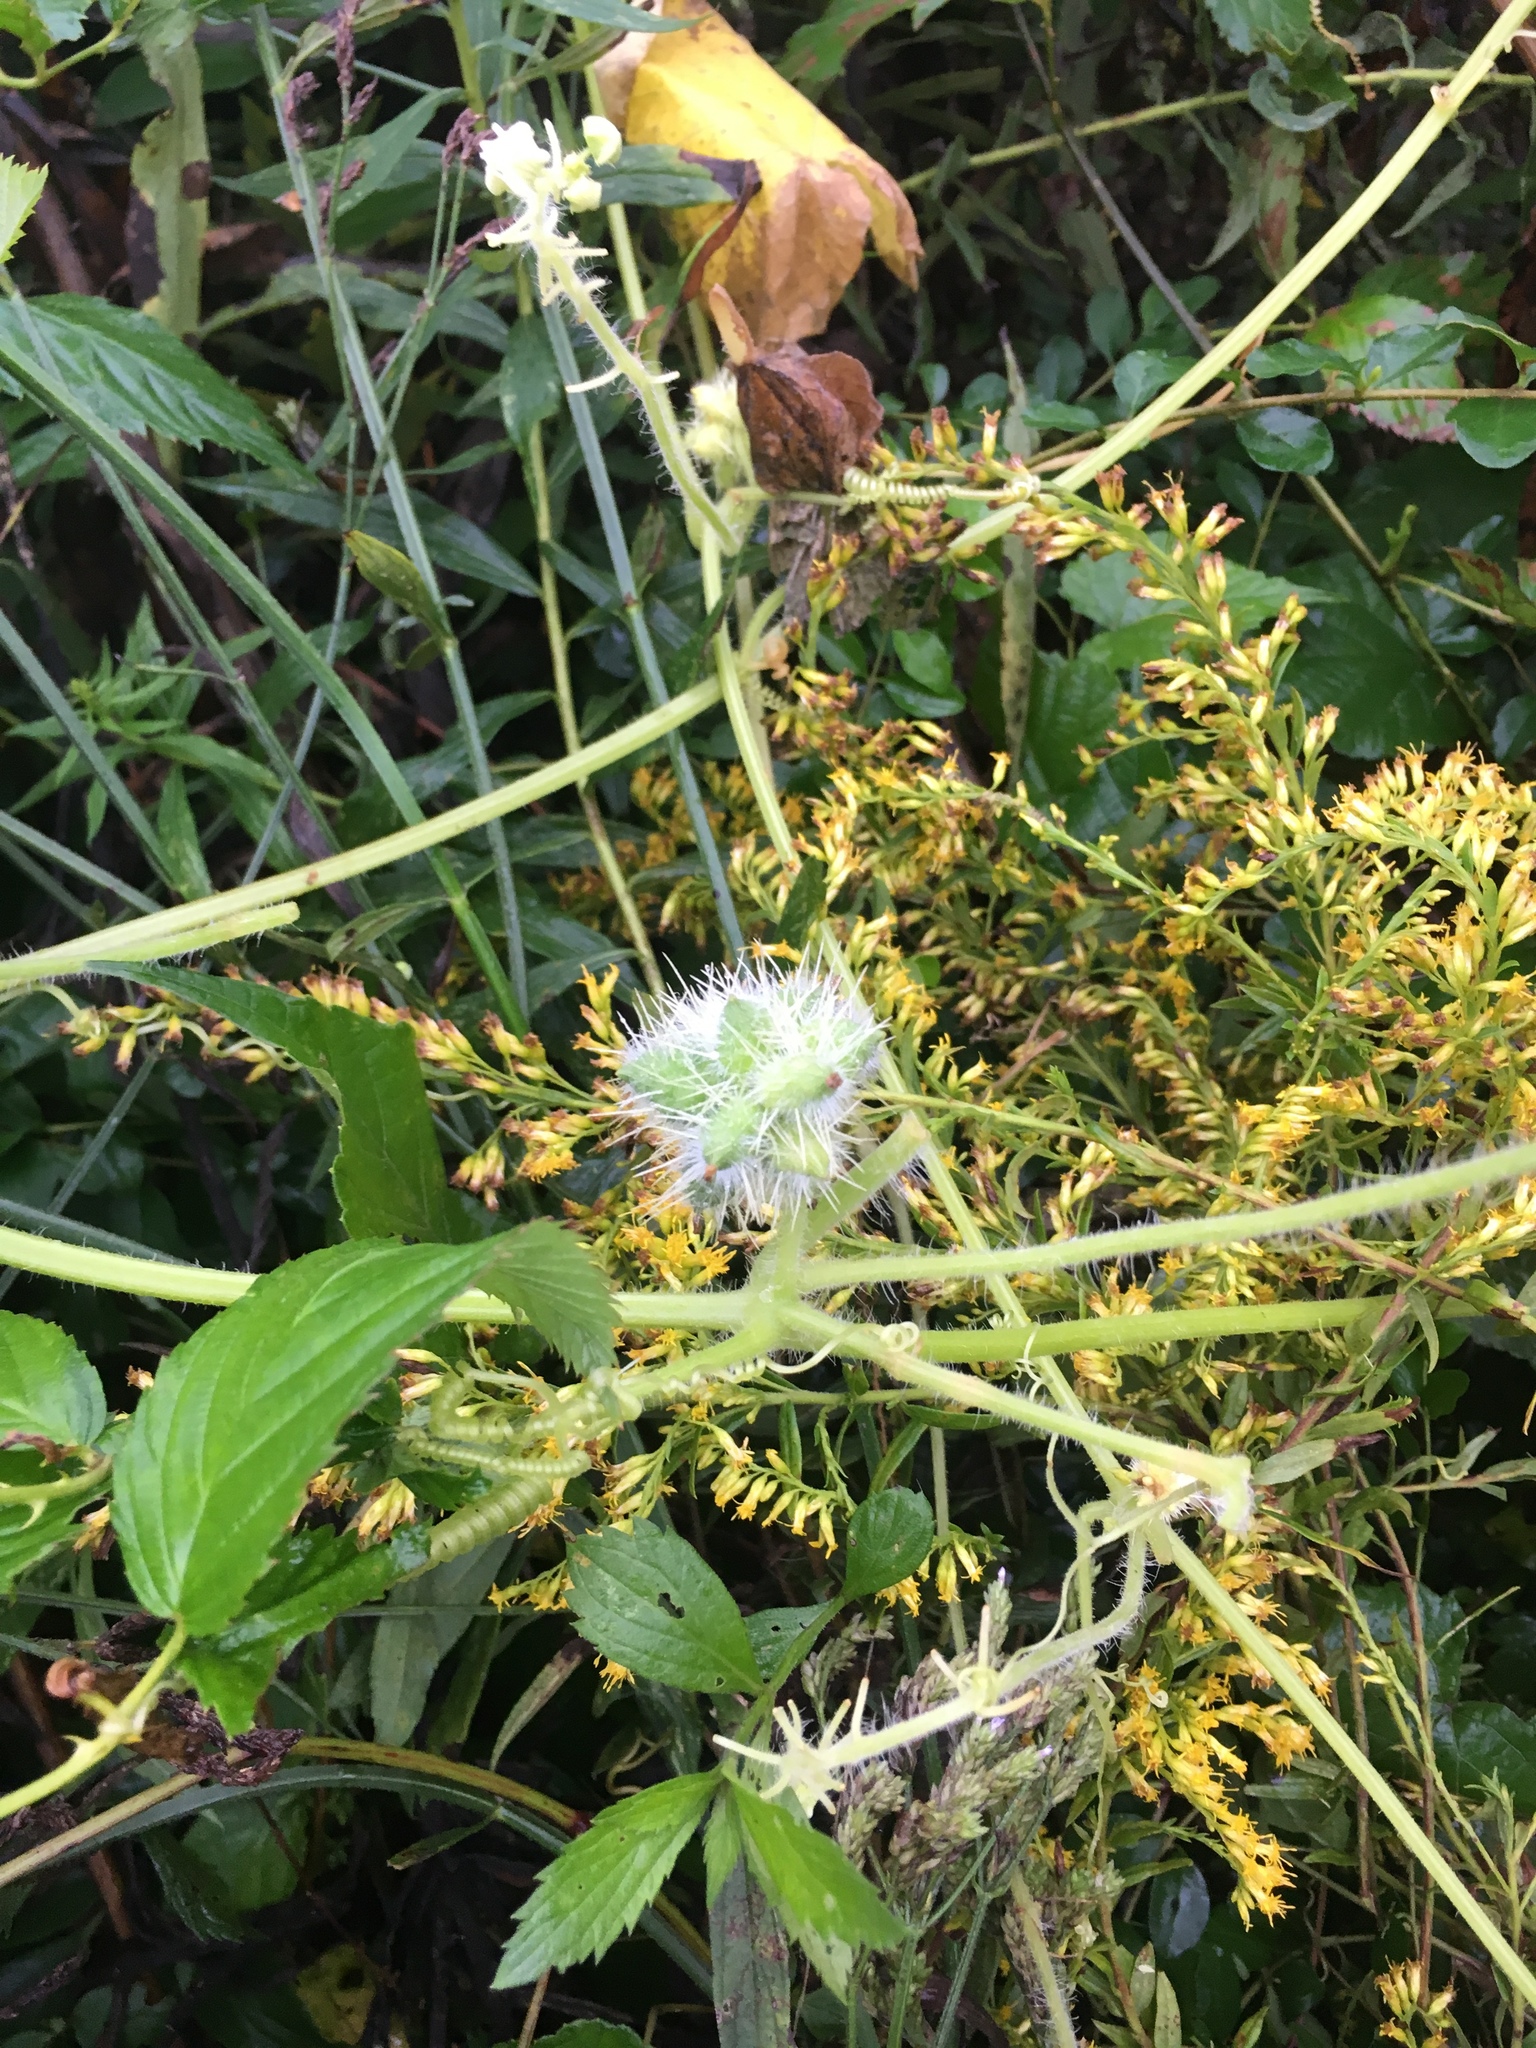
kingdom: Plantae
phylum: Tracheophyta
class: Magnoliopsida
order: Cucurbitales
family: Cucurbitaceae
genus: Sicyos
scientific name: Sicyos angulatus
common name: Angled burr cucumber
